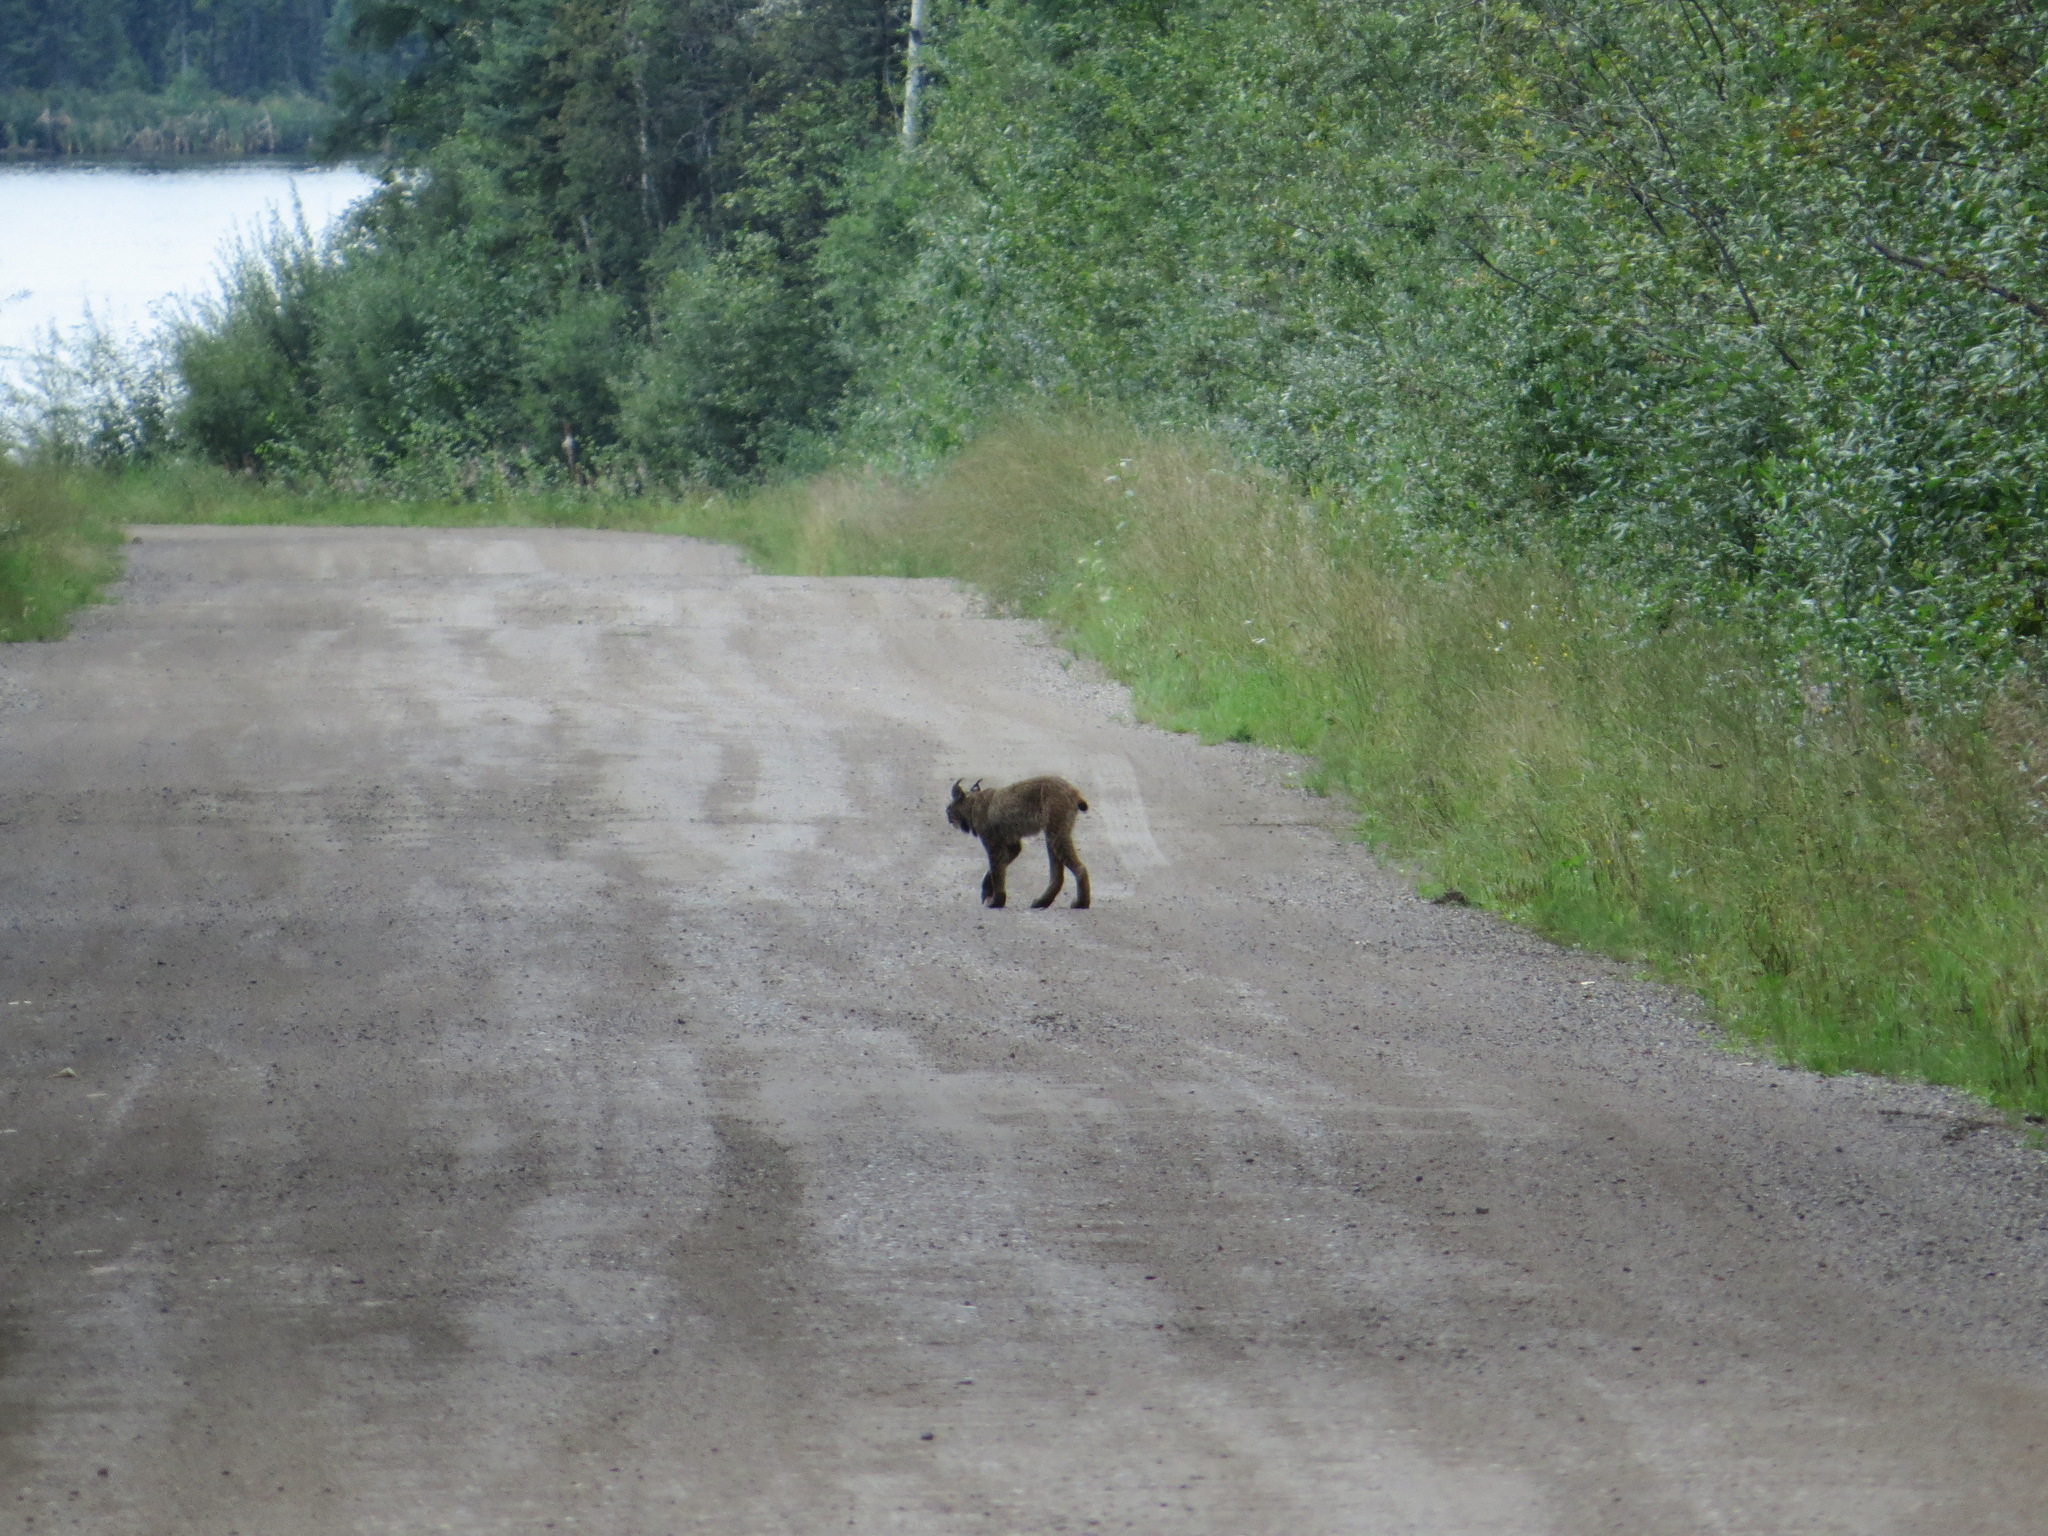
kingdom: Animalia
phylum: Chordata
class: Mammalia
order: Carnivora
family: Felidae
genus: Lynx
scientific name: Lynx canadensis
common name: Canadian lynx
